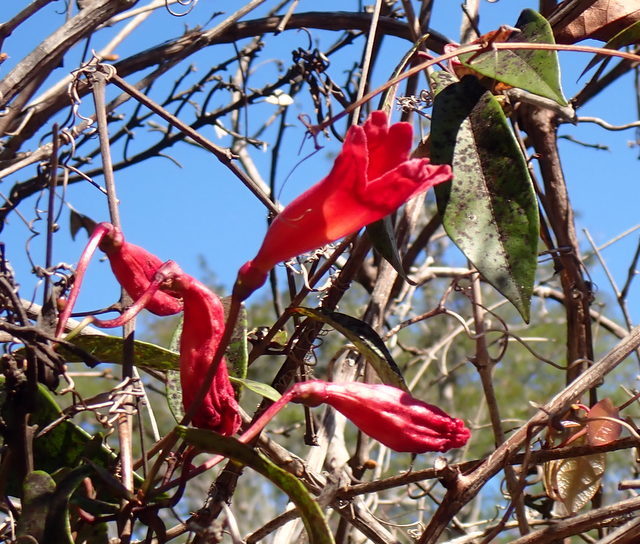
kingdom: Plantae
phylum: Tracheophyta
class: Magnoliopsida
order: Lamiales
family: Bignoniaceae
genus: Bignonia
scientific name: Bignonia capreolata
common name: Crossvine
